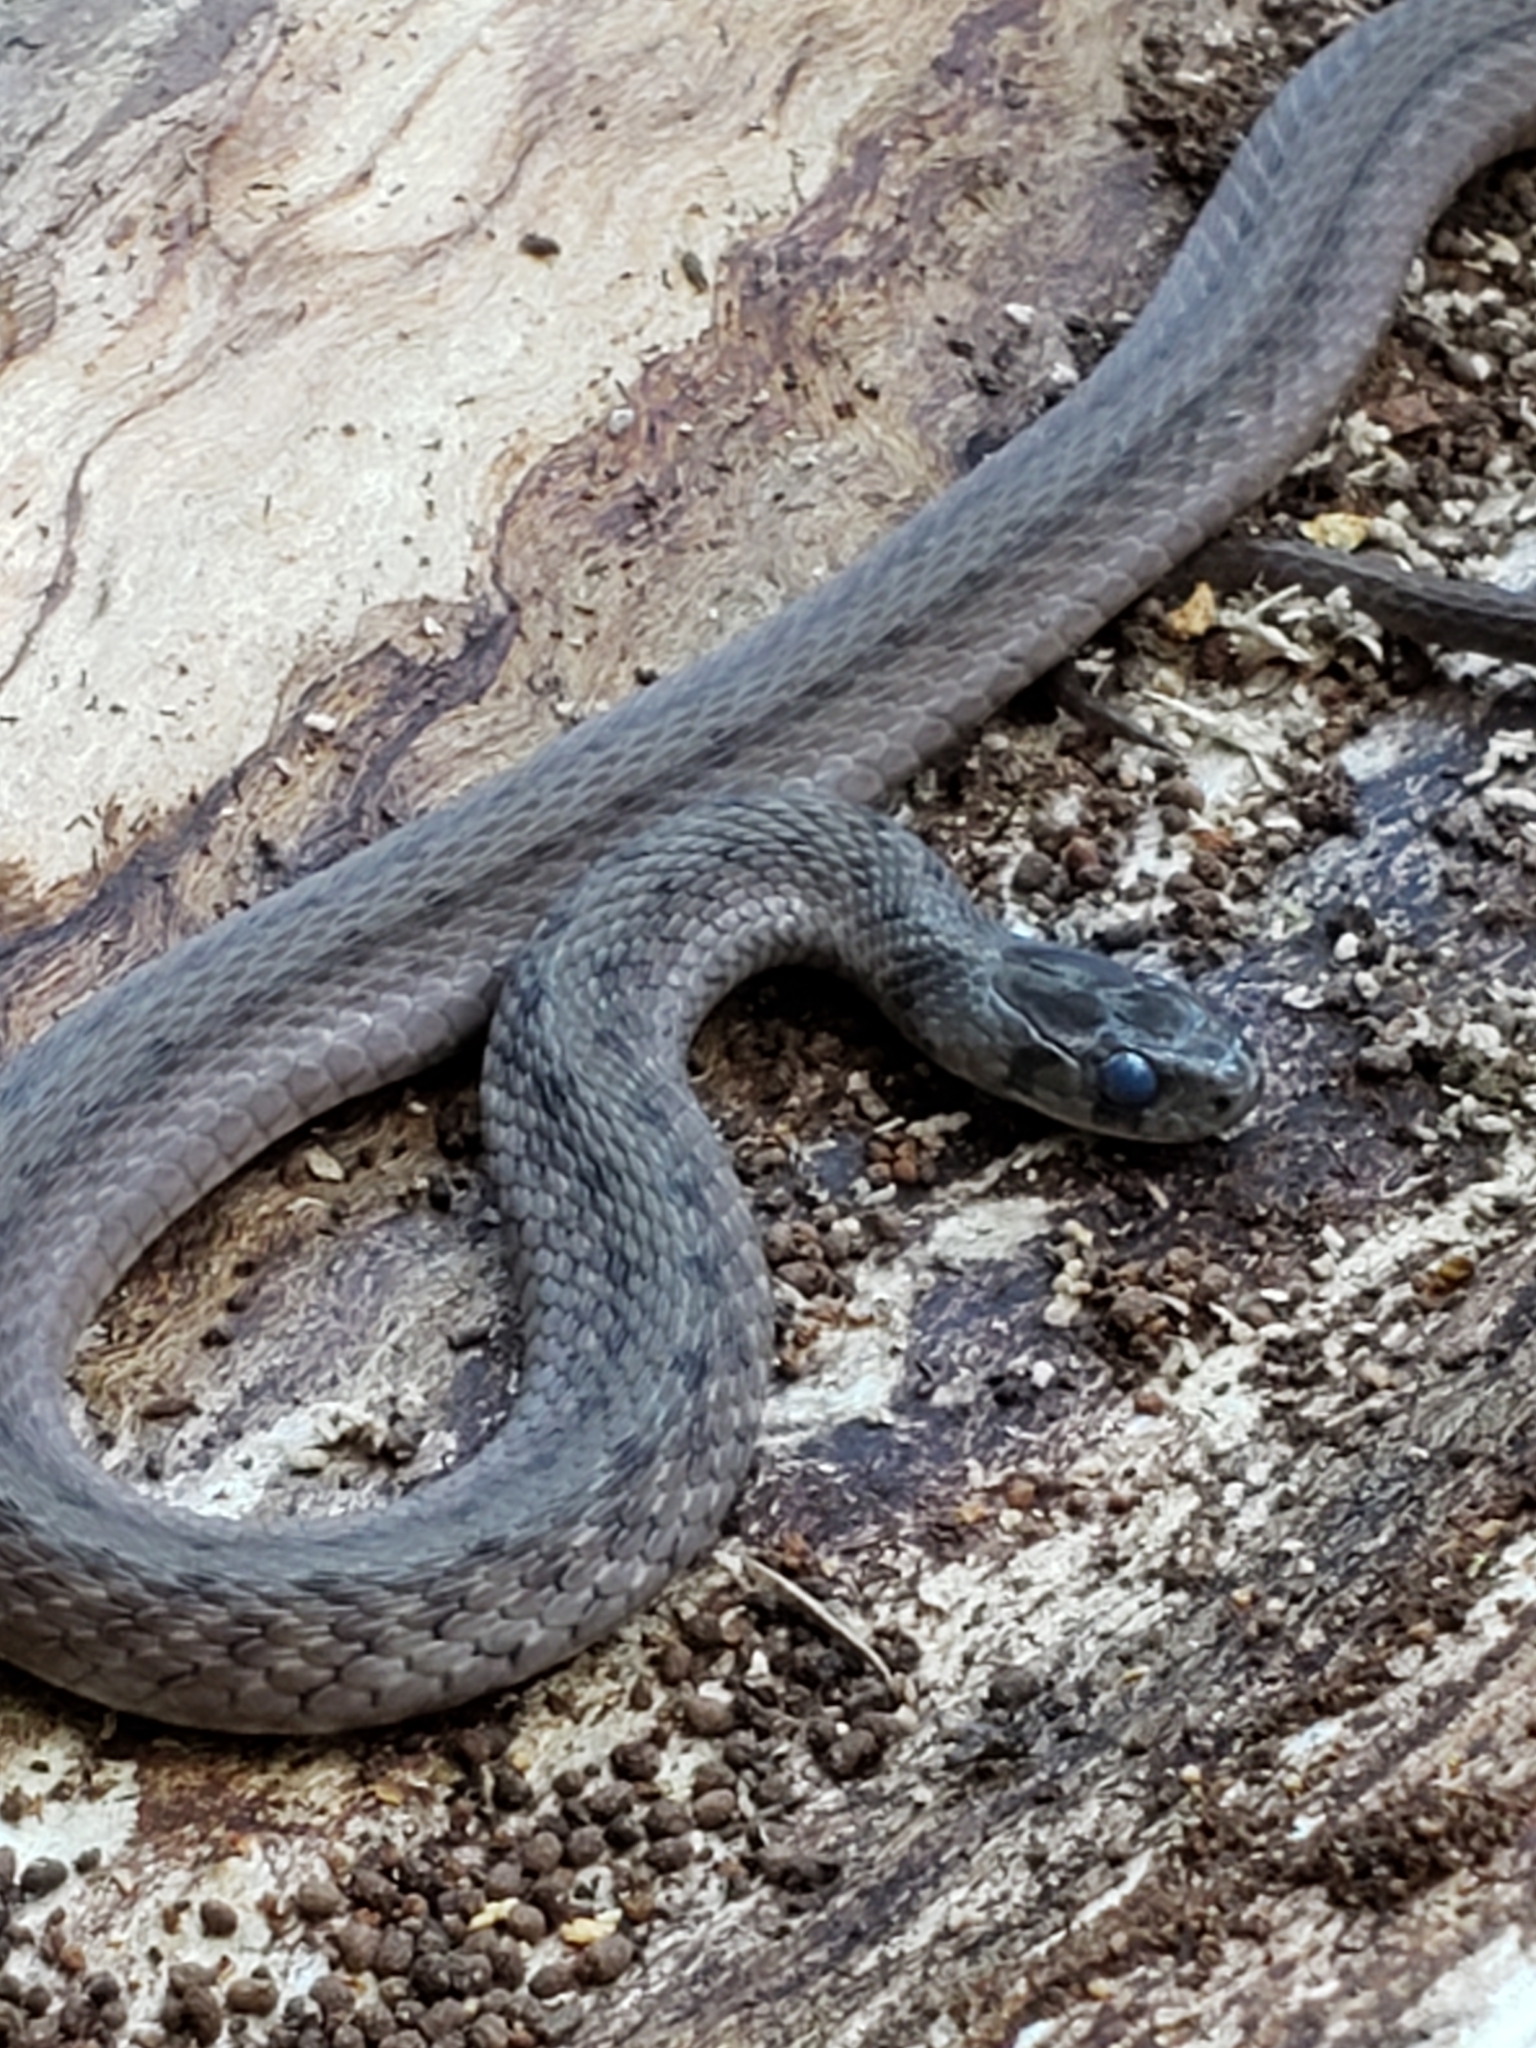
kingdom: Animalia
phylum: Chordata
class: Squamata
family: Colubridae
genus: Storeria
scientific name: Storeria dekayi
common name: (dekay’s) brown snake
